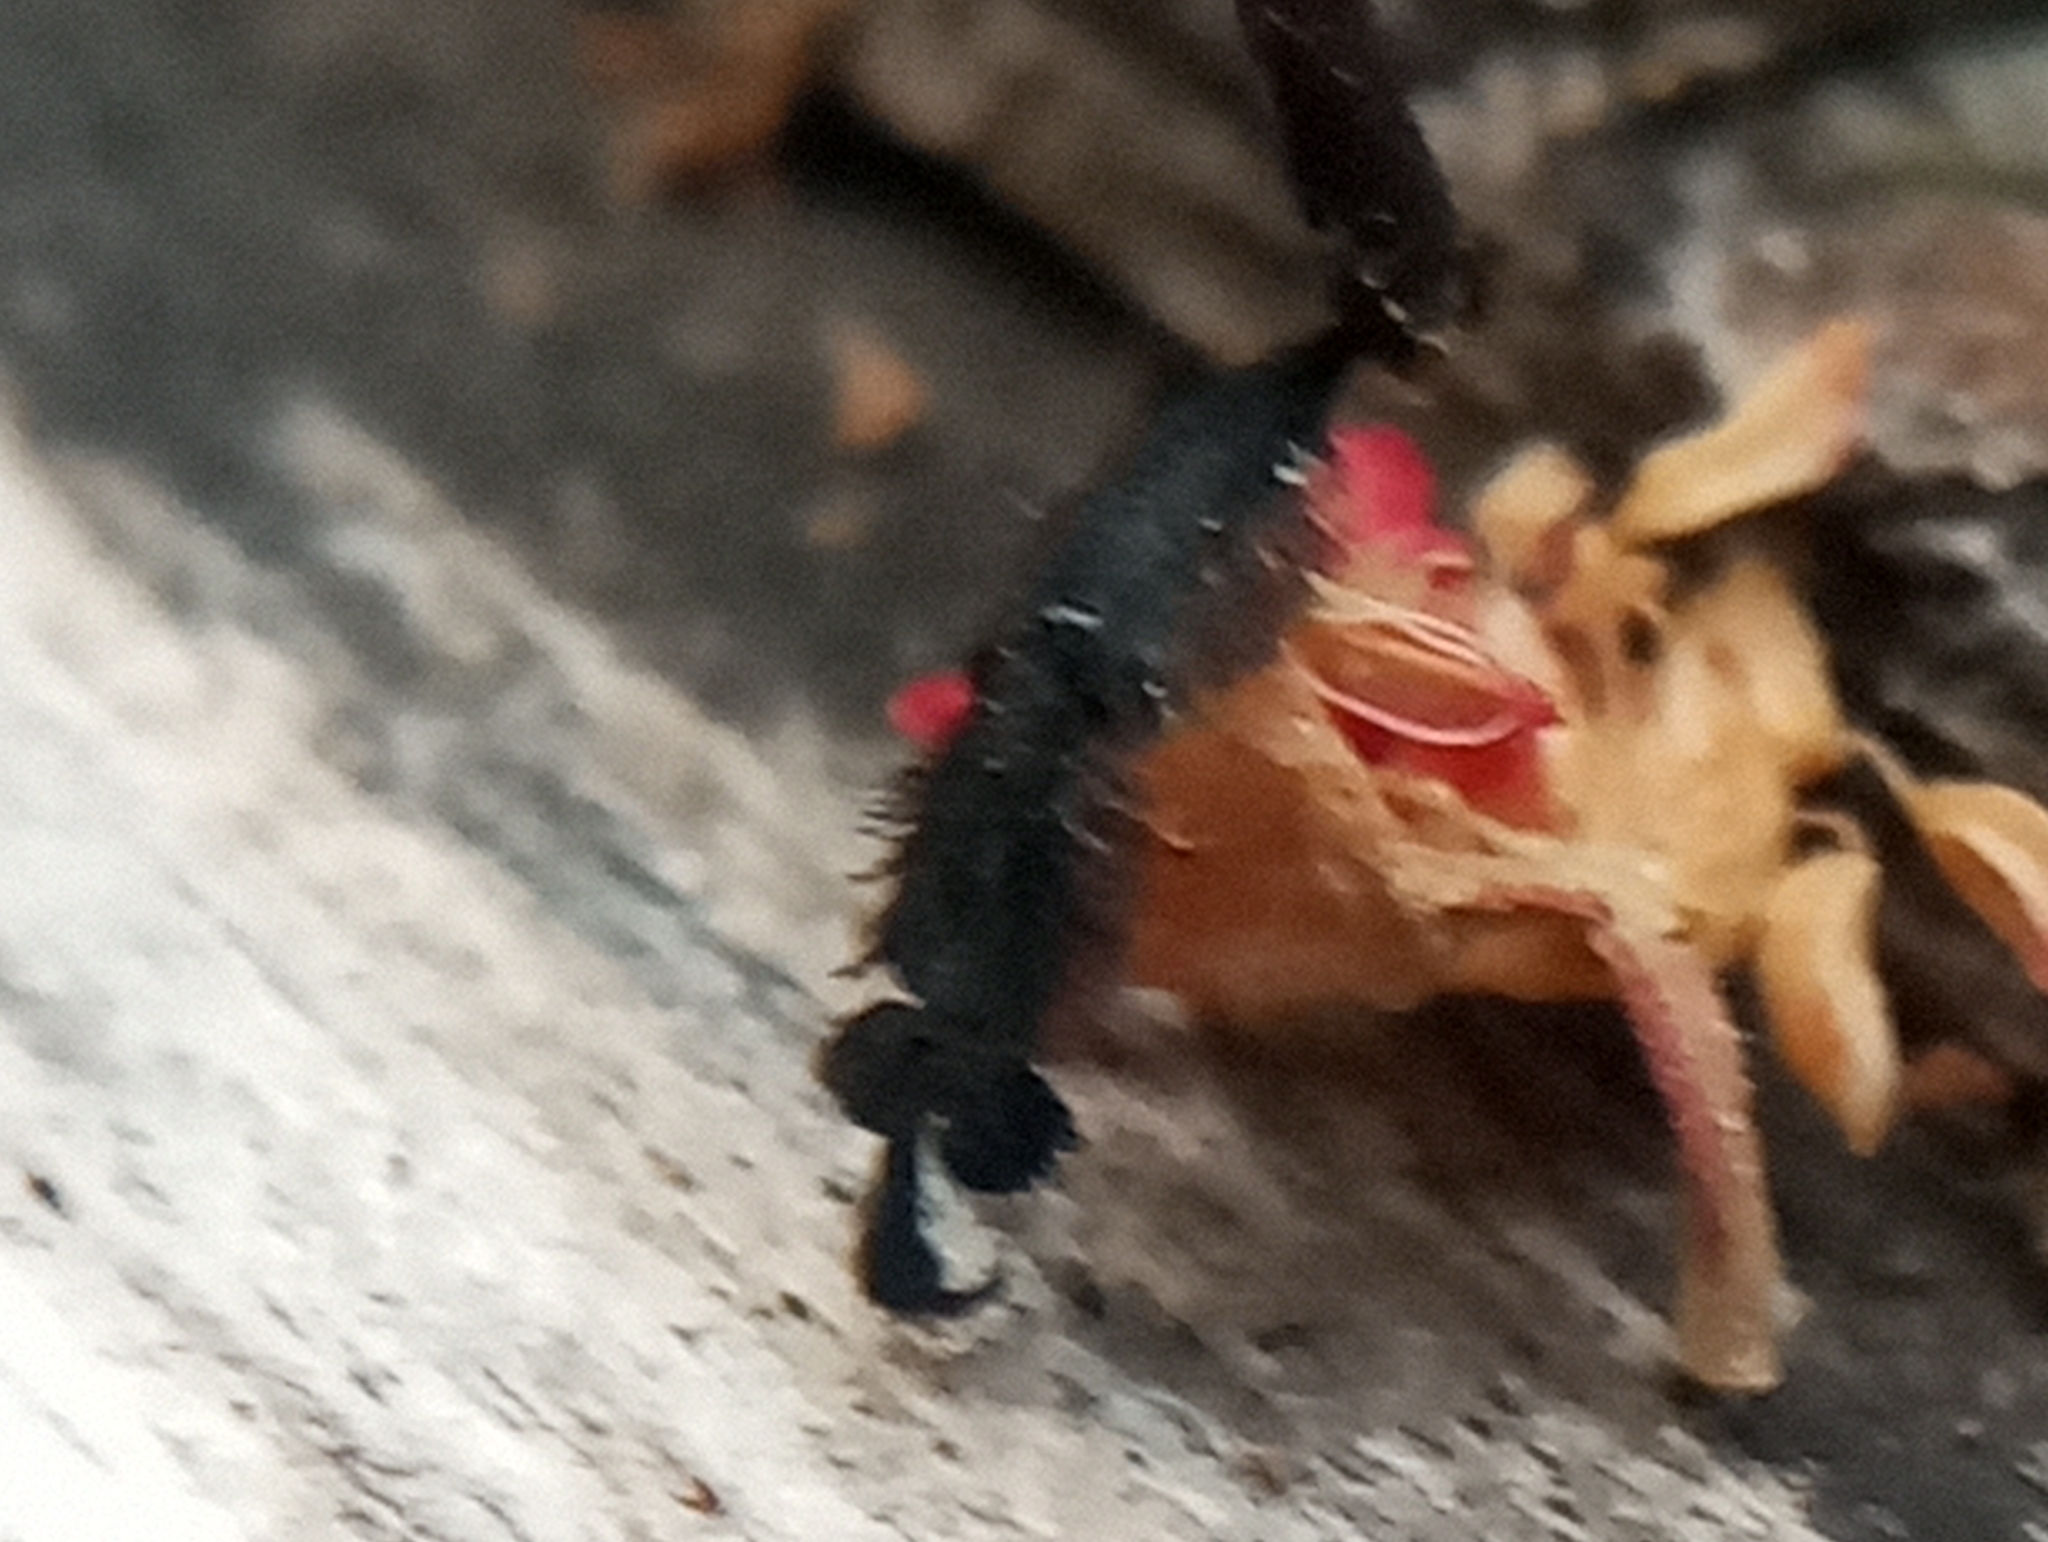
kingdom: Animalia
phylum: Arthropoda
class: Insecta
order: Coleoptera
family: Curculionidae
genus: Rhyephenes
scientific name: Rhyephenes humeralis
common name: Araè±ita chilena del pino
